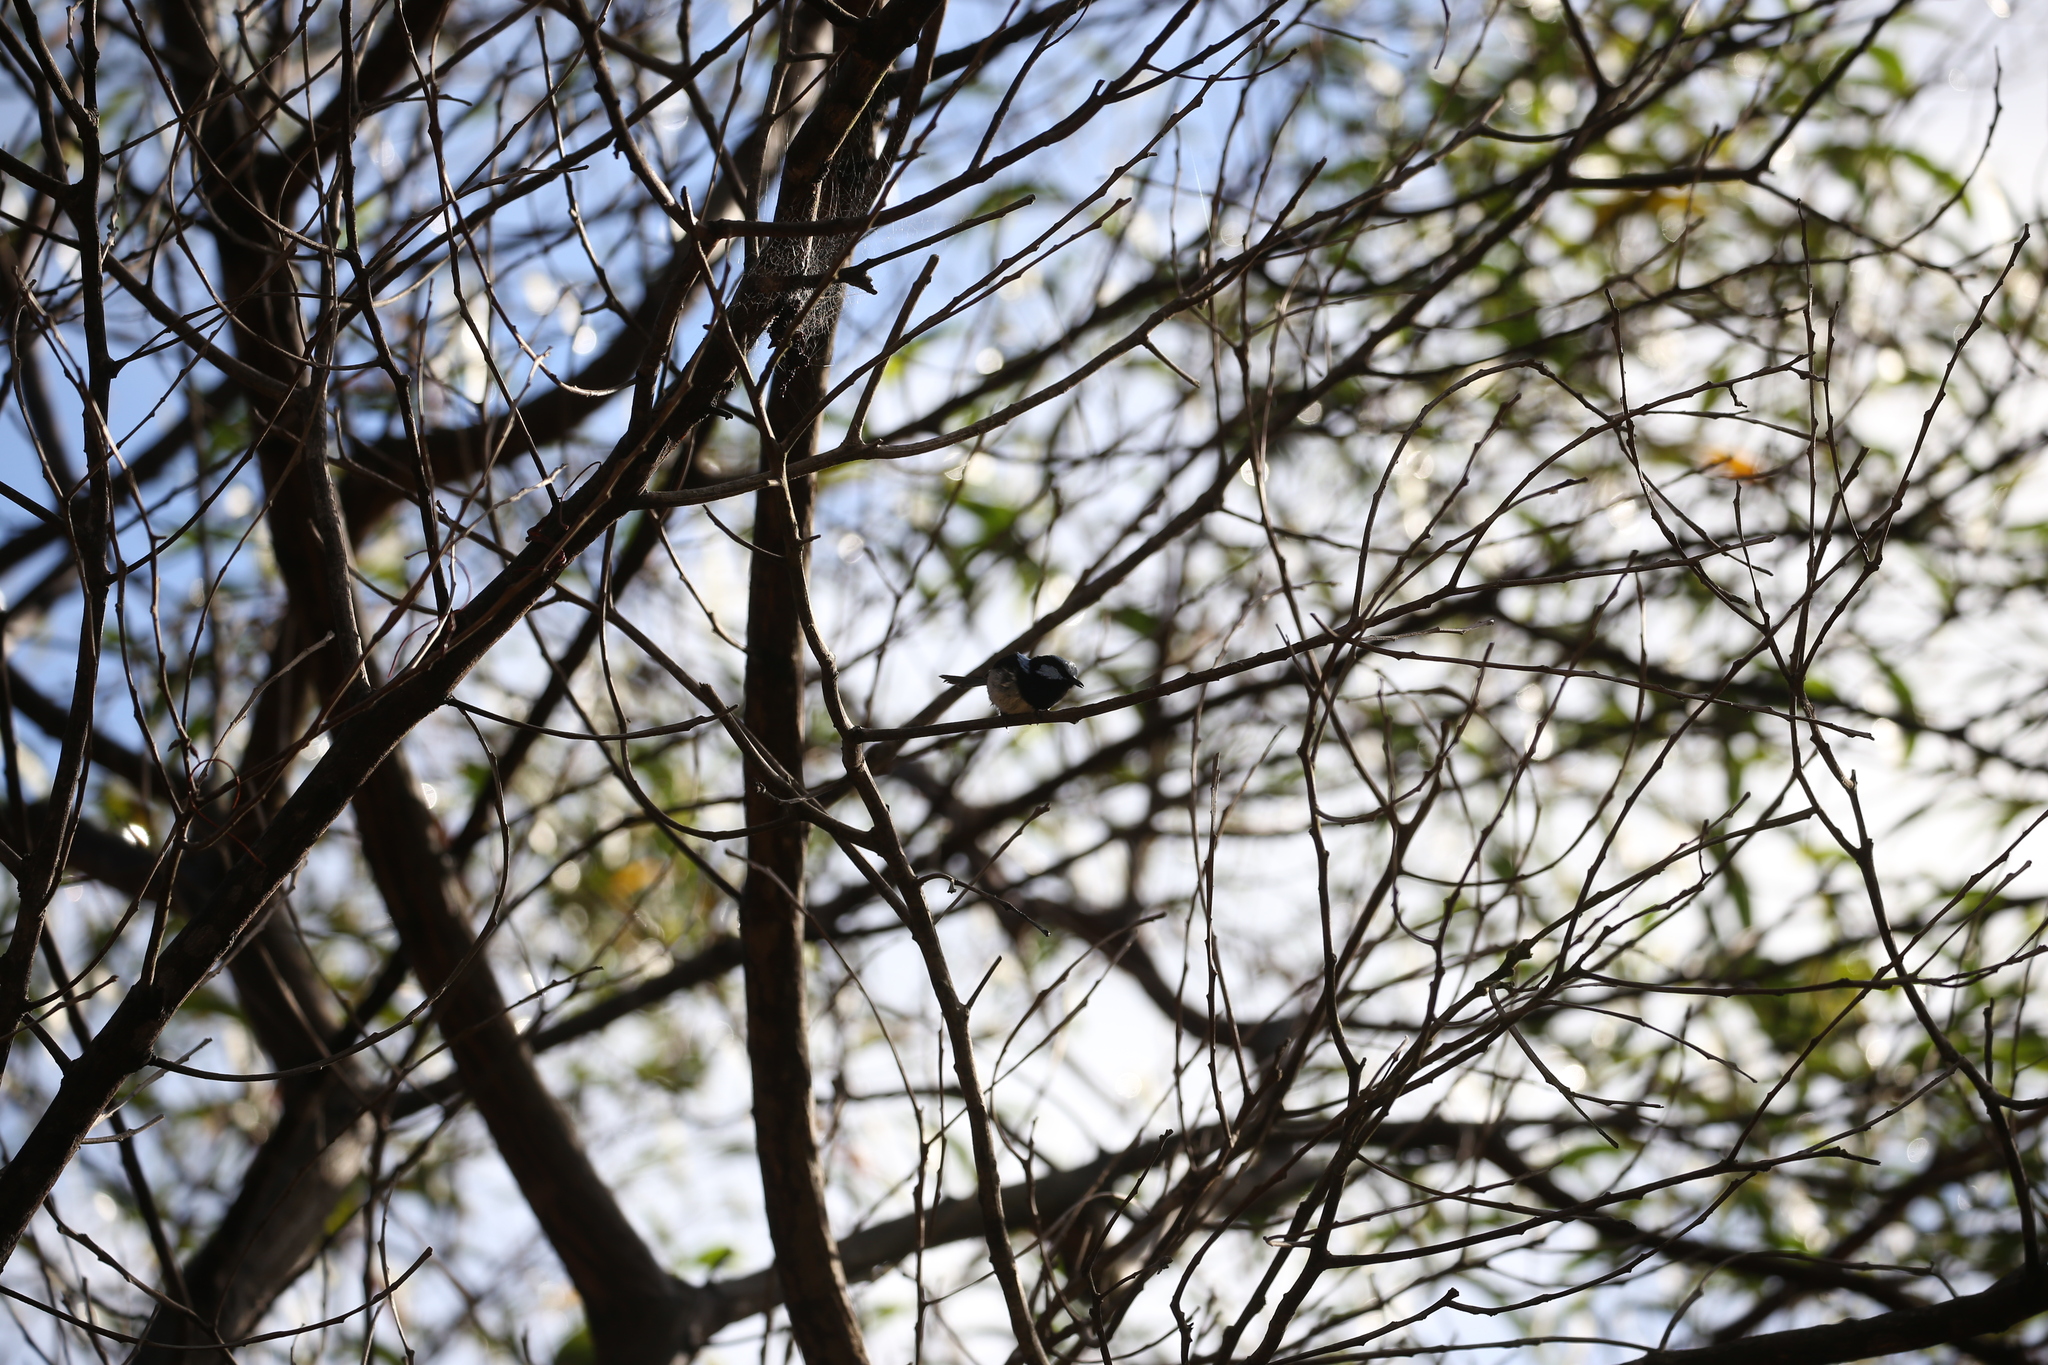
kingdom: Animalia
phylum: Chordata
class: Aves
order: Passeriformes
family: Maluridae
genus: Malurus
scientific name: Malurus cyaneus
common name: Superb fairywren
